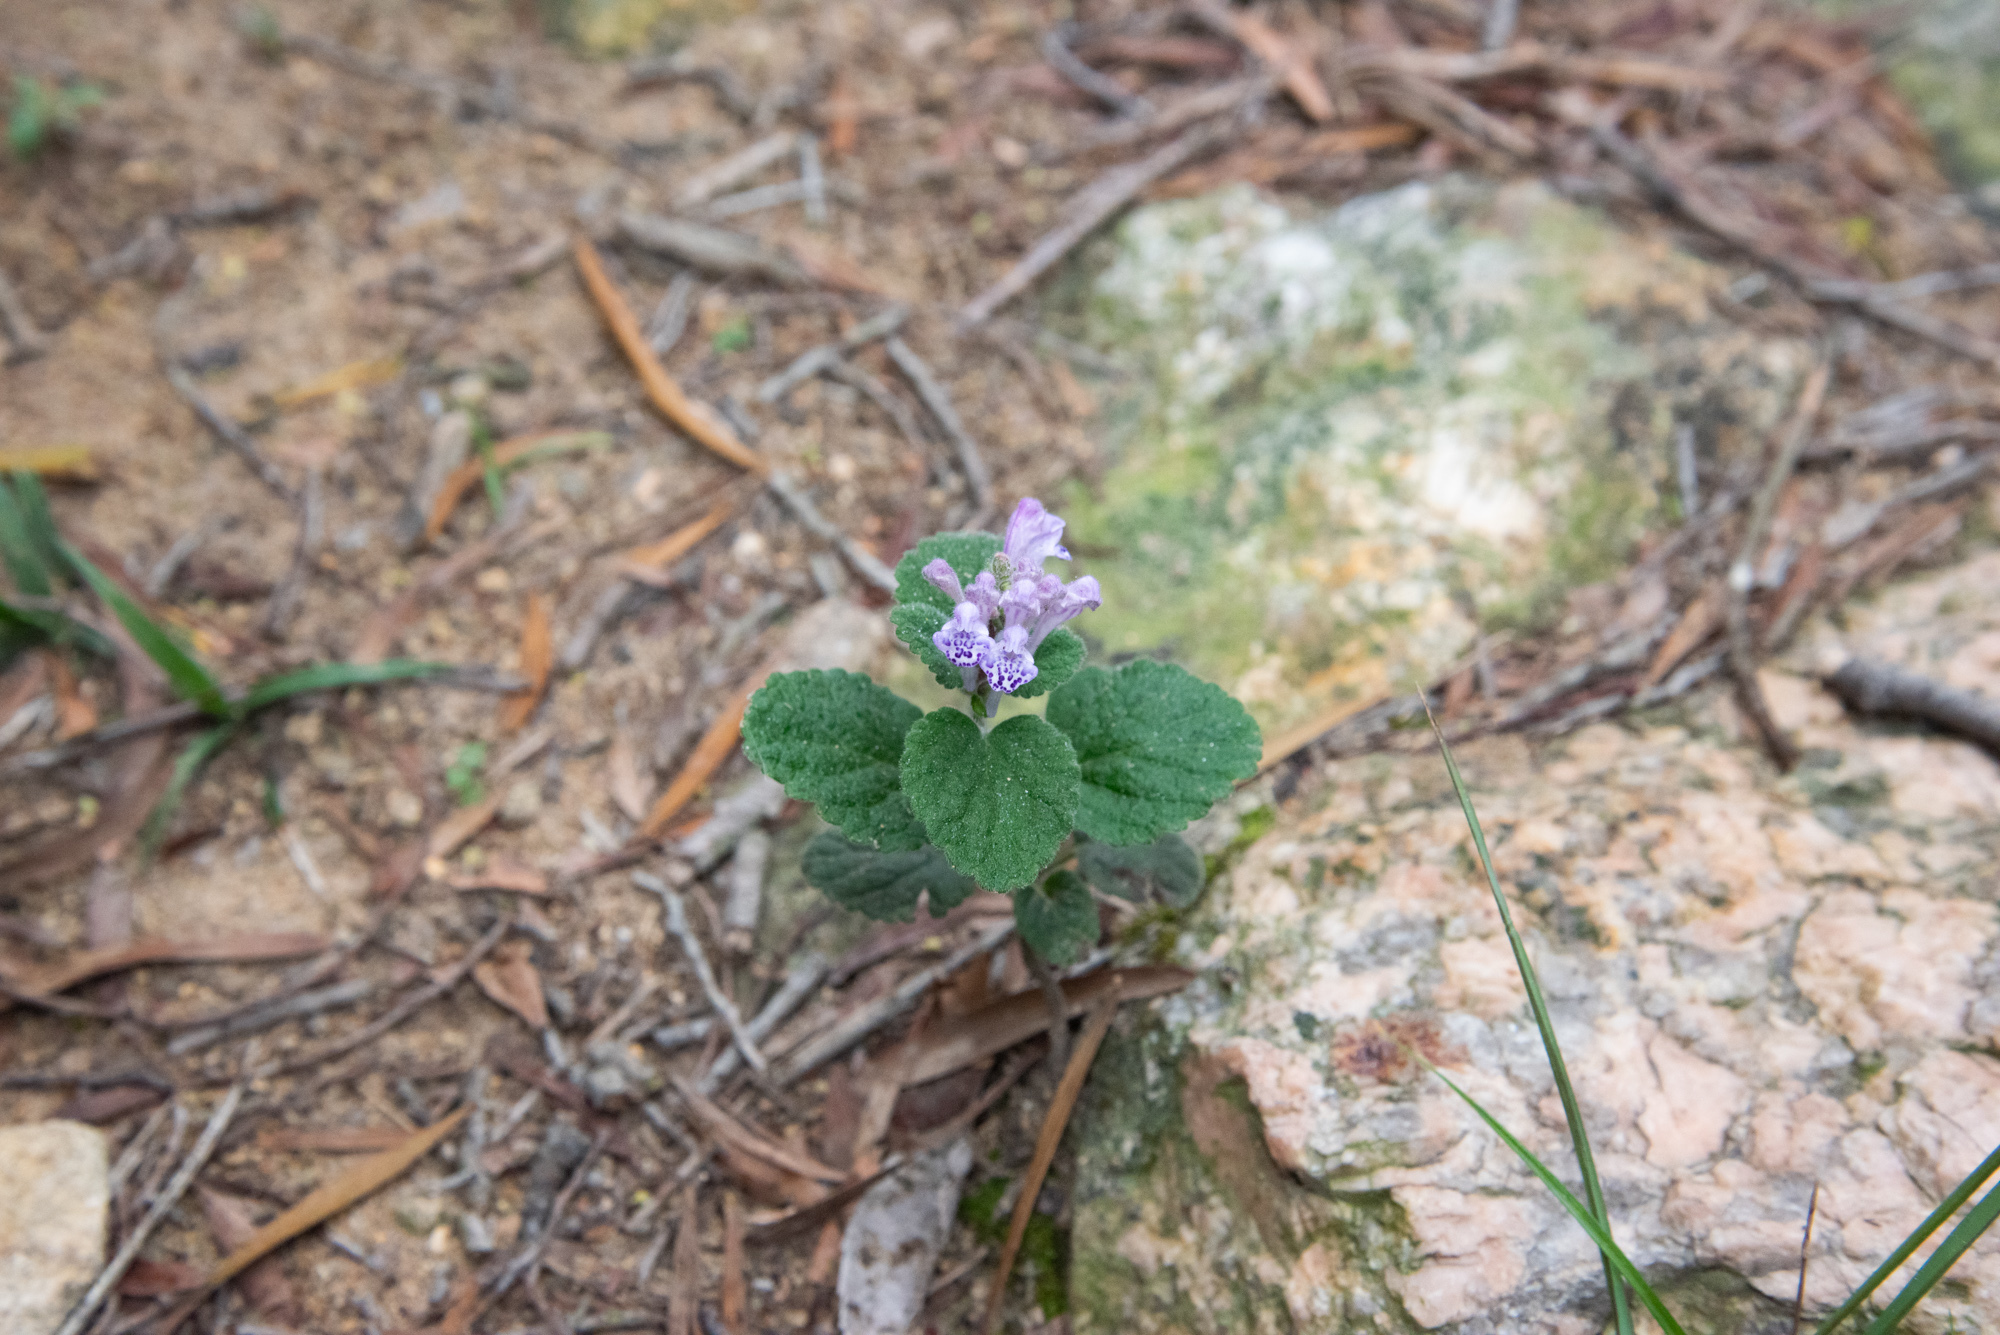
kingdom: Plantae
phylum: Tracheophyta
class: Magnoliopsida
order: Lamiales
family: Lamiaceae
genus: Scutellaria
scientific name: Scutellaria indica
